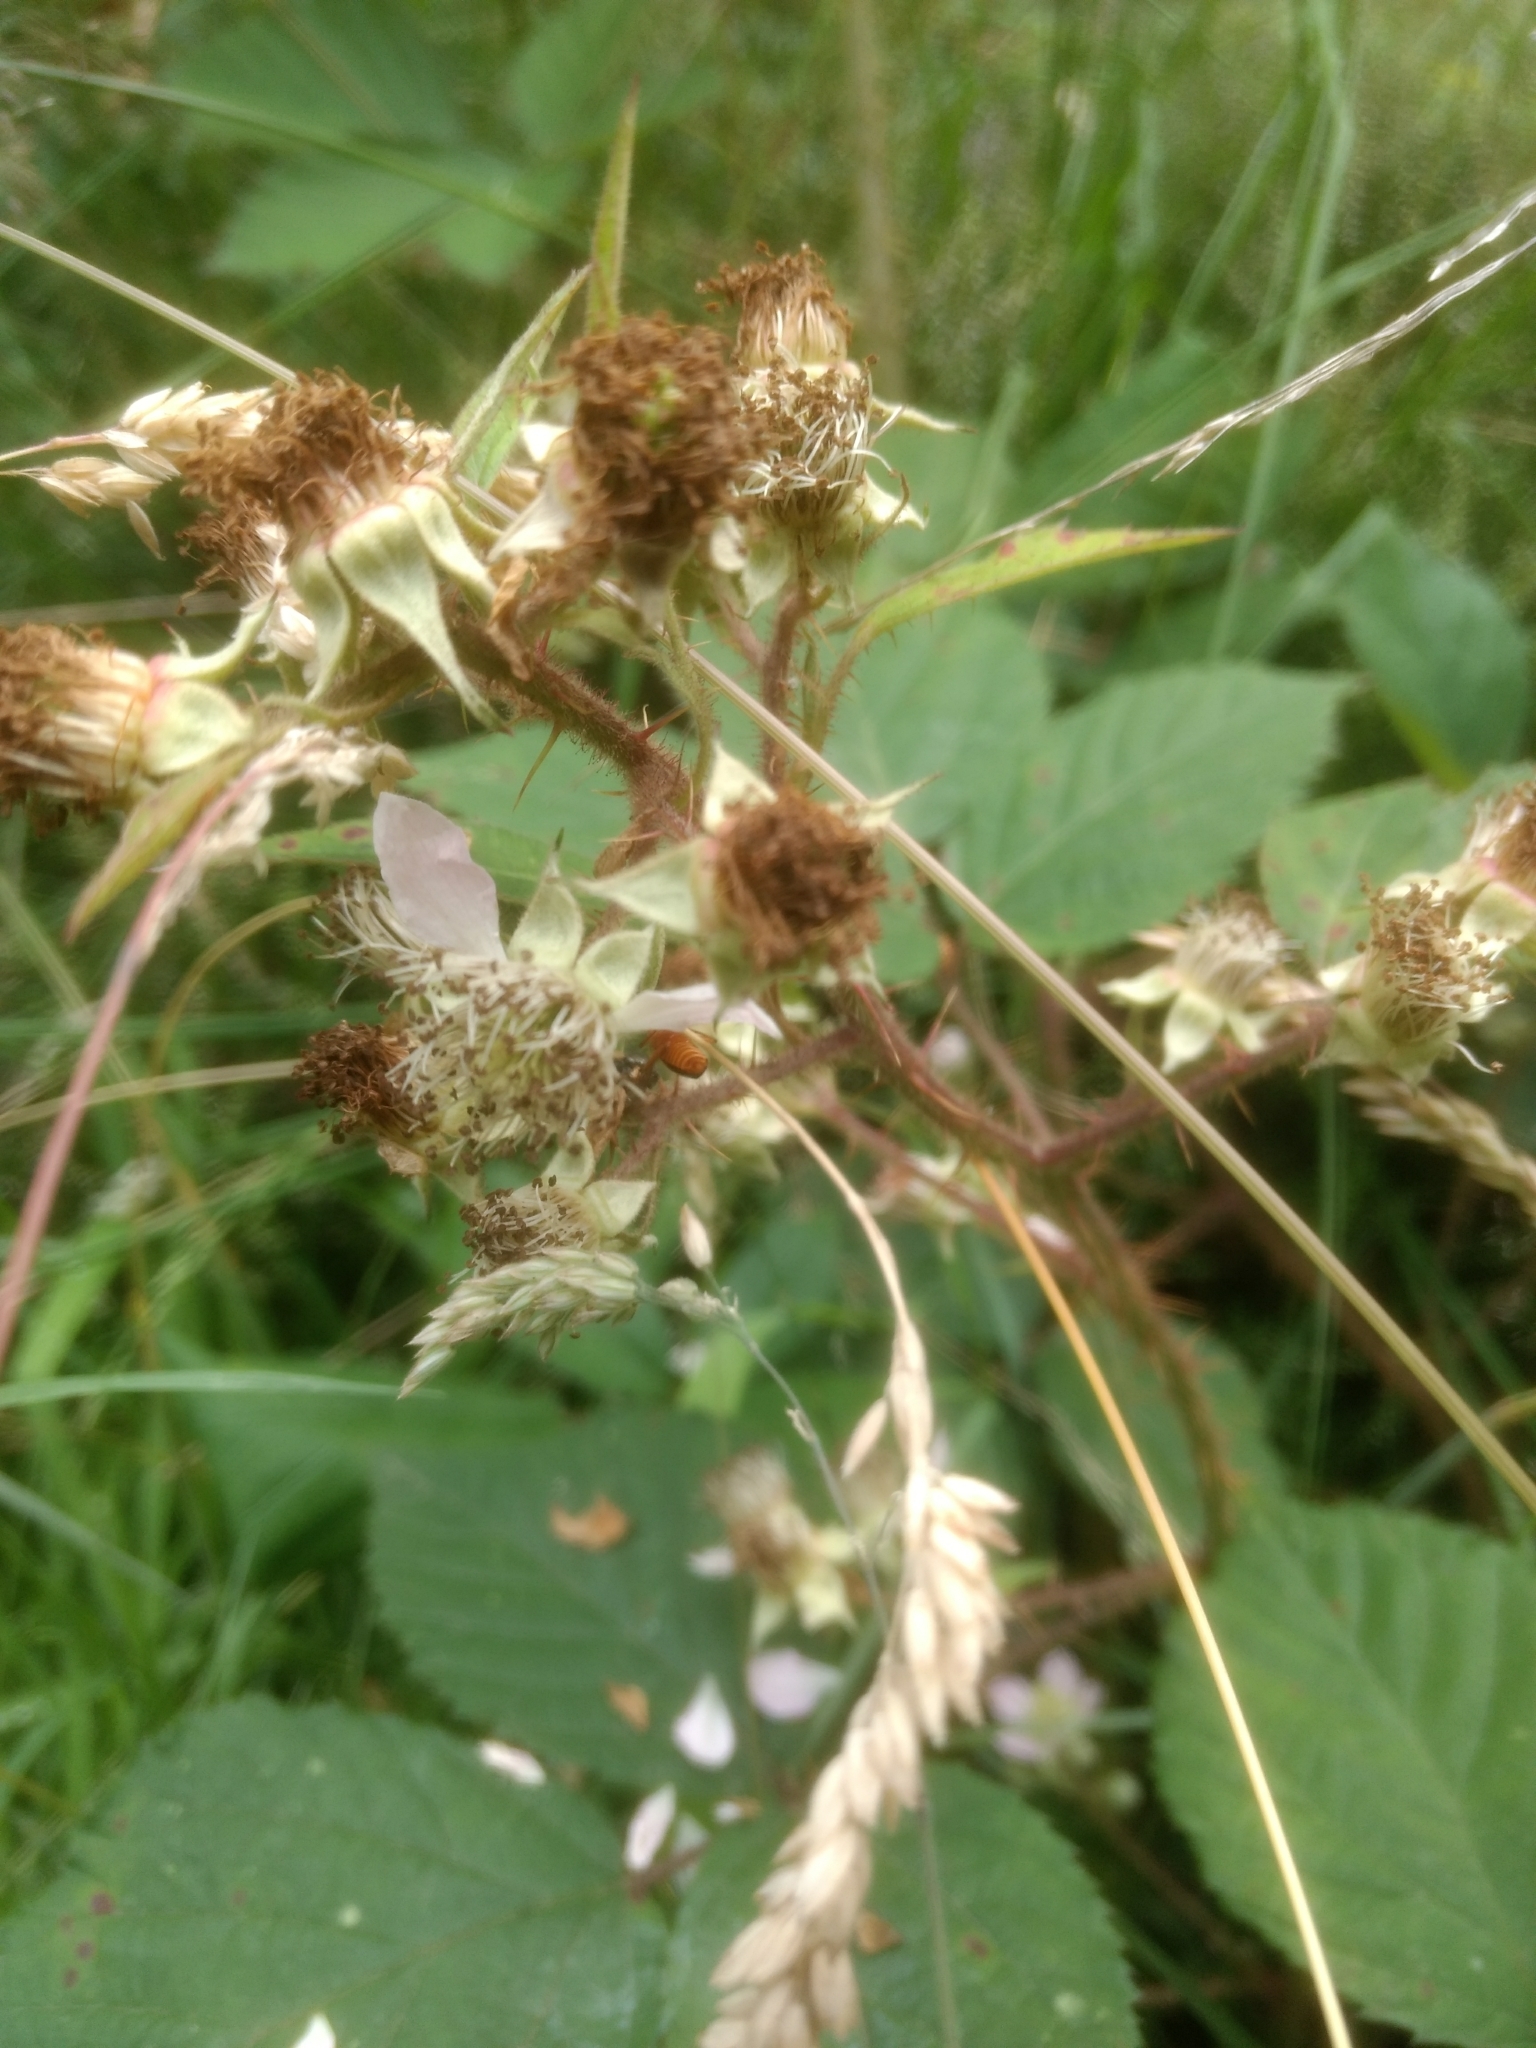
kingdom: Animalia
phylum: Arthropoda
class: Insecta
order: Coleoptera
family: Cantharidae
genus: Rhagonycha
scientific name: Rhagonycha fulva
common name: Common red soldier beetle
